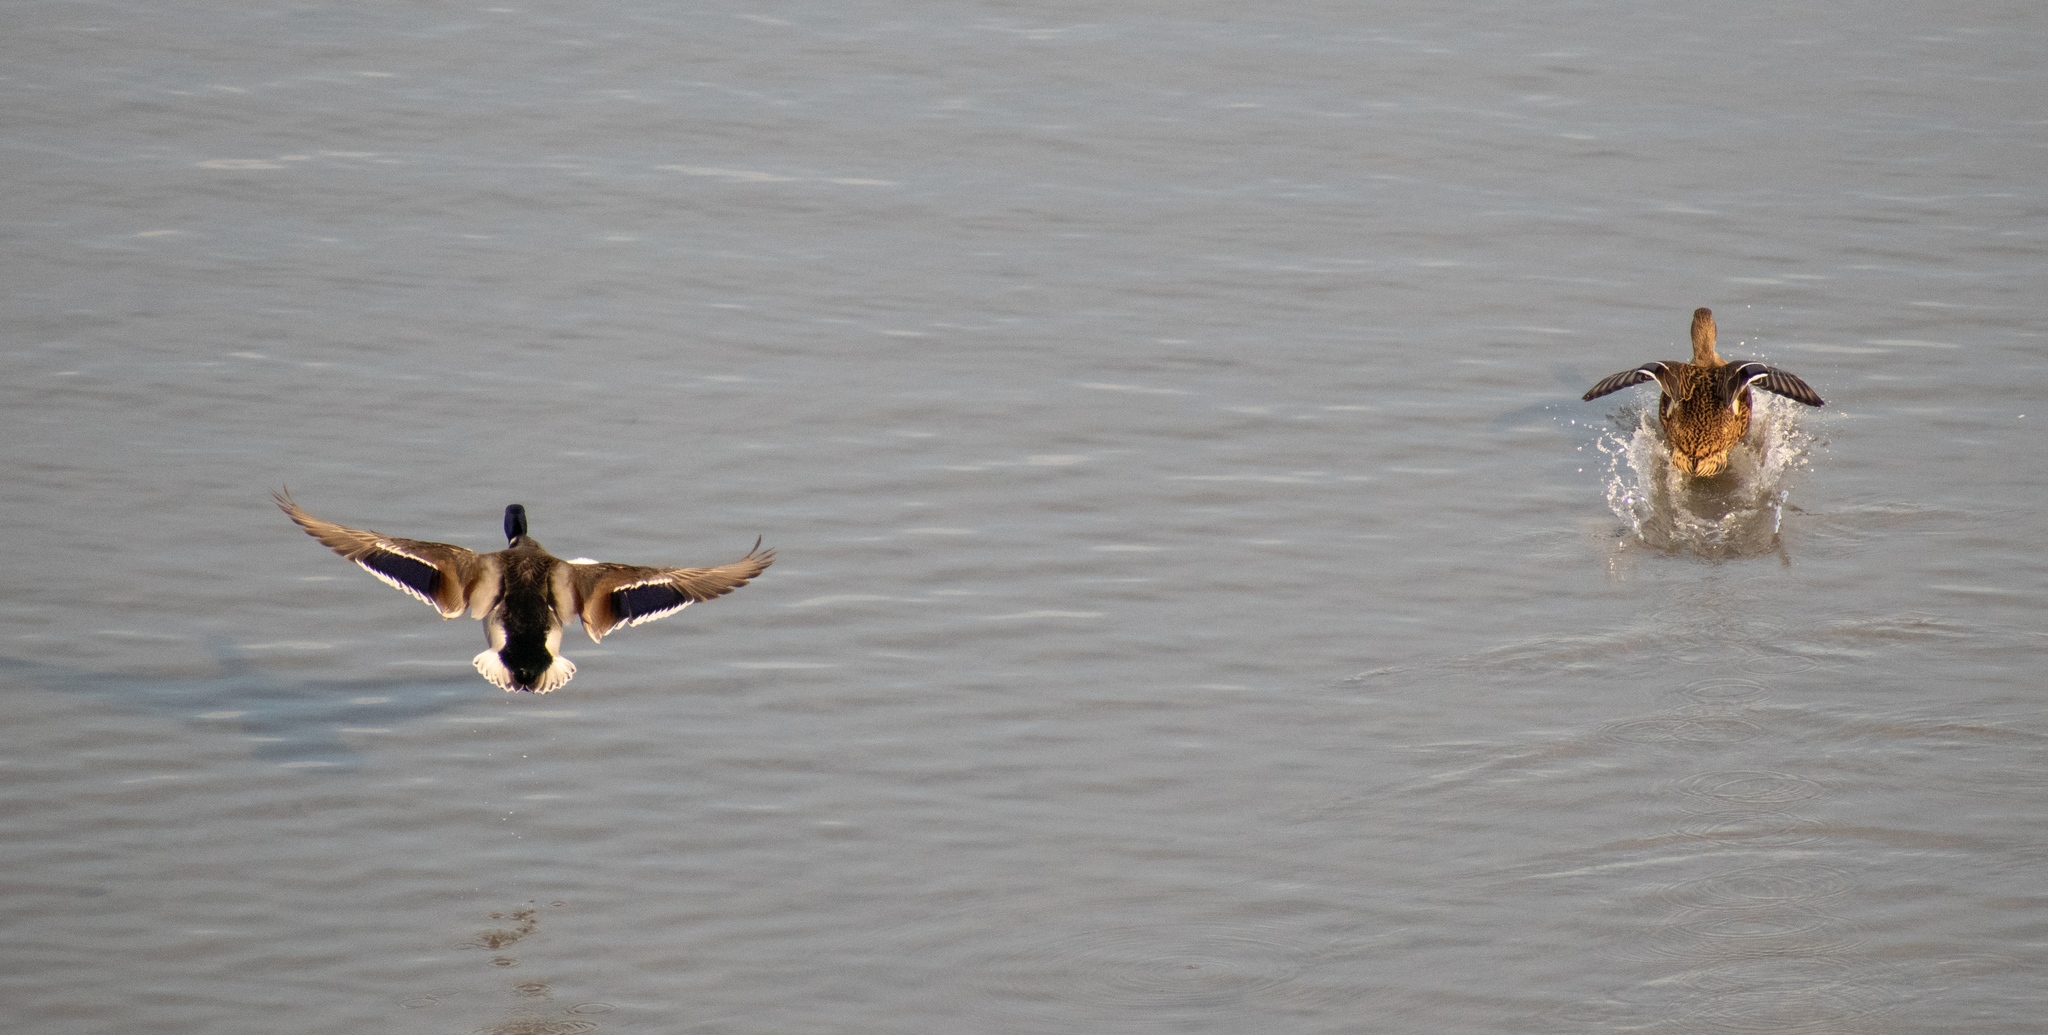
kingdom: Animalia
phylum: Chordata
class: Aves
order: Anseriformes
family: Anatidae
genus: Anas
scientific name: Anas platyrhynchos
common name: Mallard
